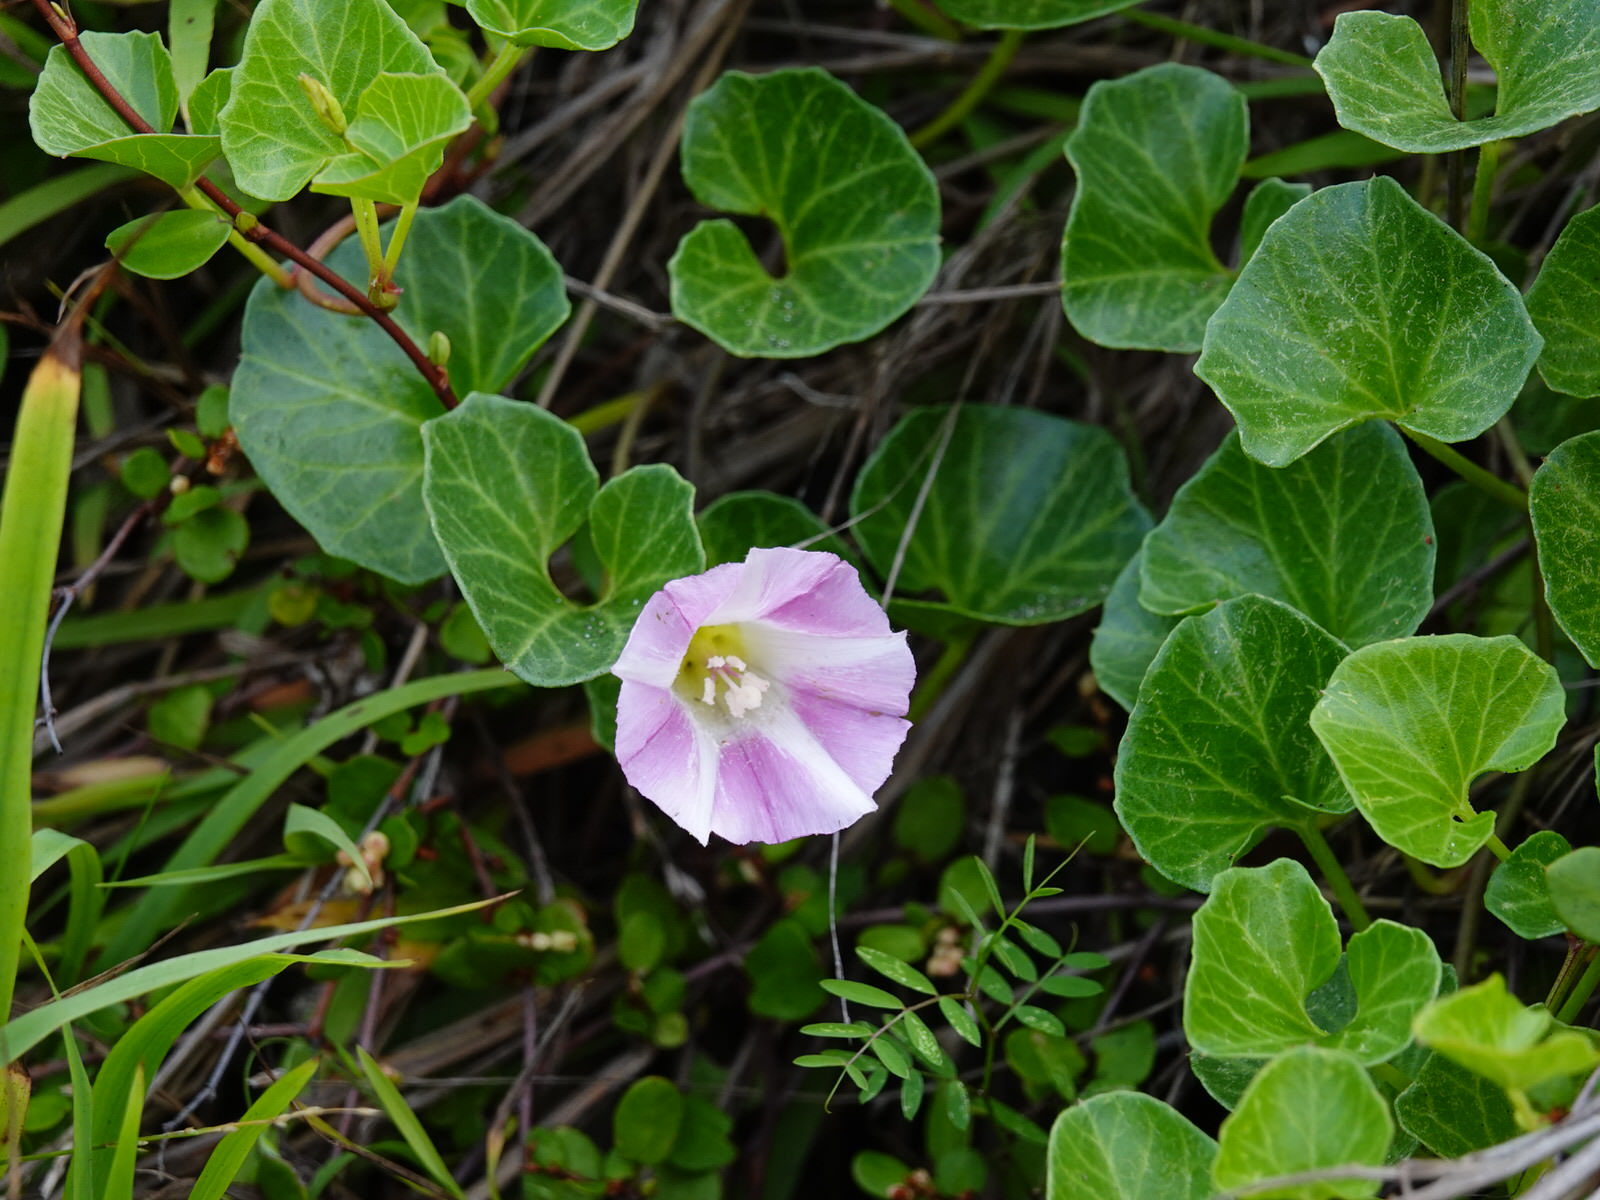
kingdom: Plantae
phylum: Tracheophyta
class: Magnoliopsida
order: Solanales
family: Convolvulaceae
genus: Calystegia
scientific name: Calystegia soldanella
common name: Sea bindweed
